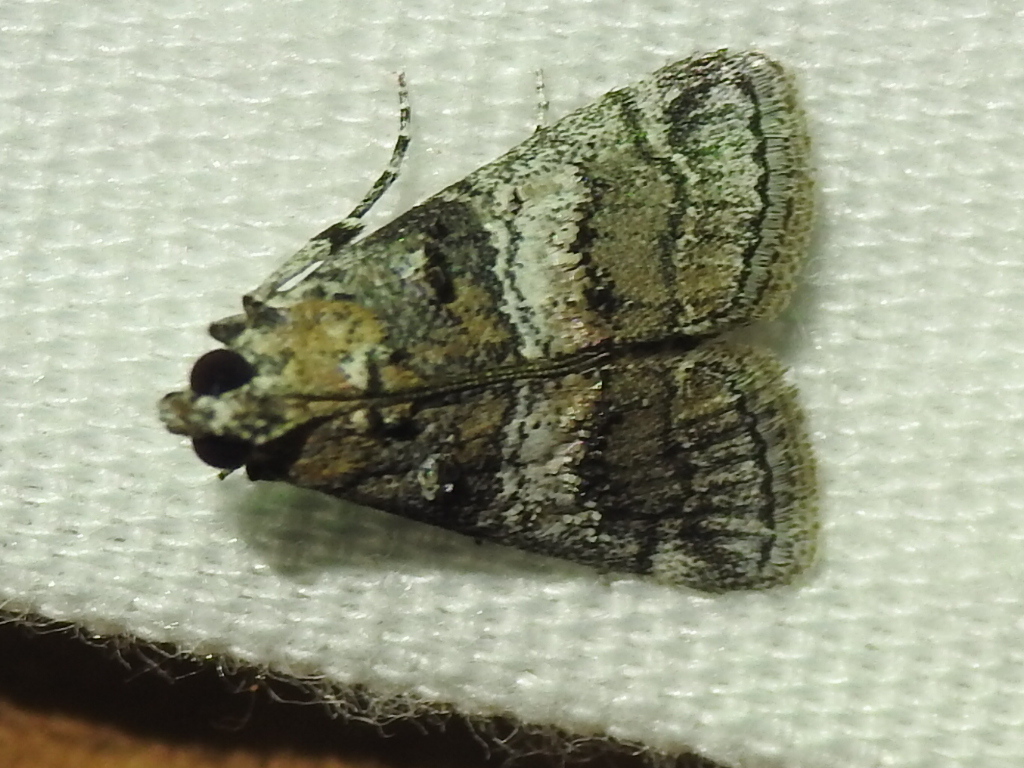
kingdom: Animalia
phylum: Arthropoda
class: Insecta
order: Lepidoptera
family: Pyralidae
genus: Pococera
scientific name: Pococera asperatella
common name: Maple webworm moth
